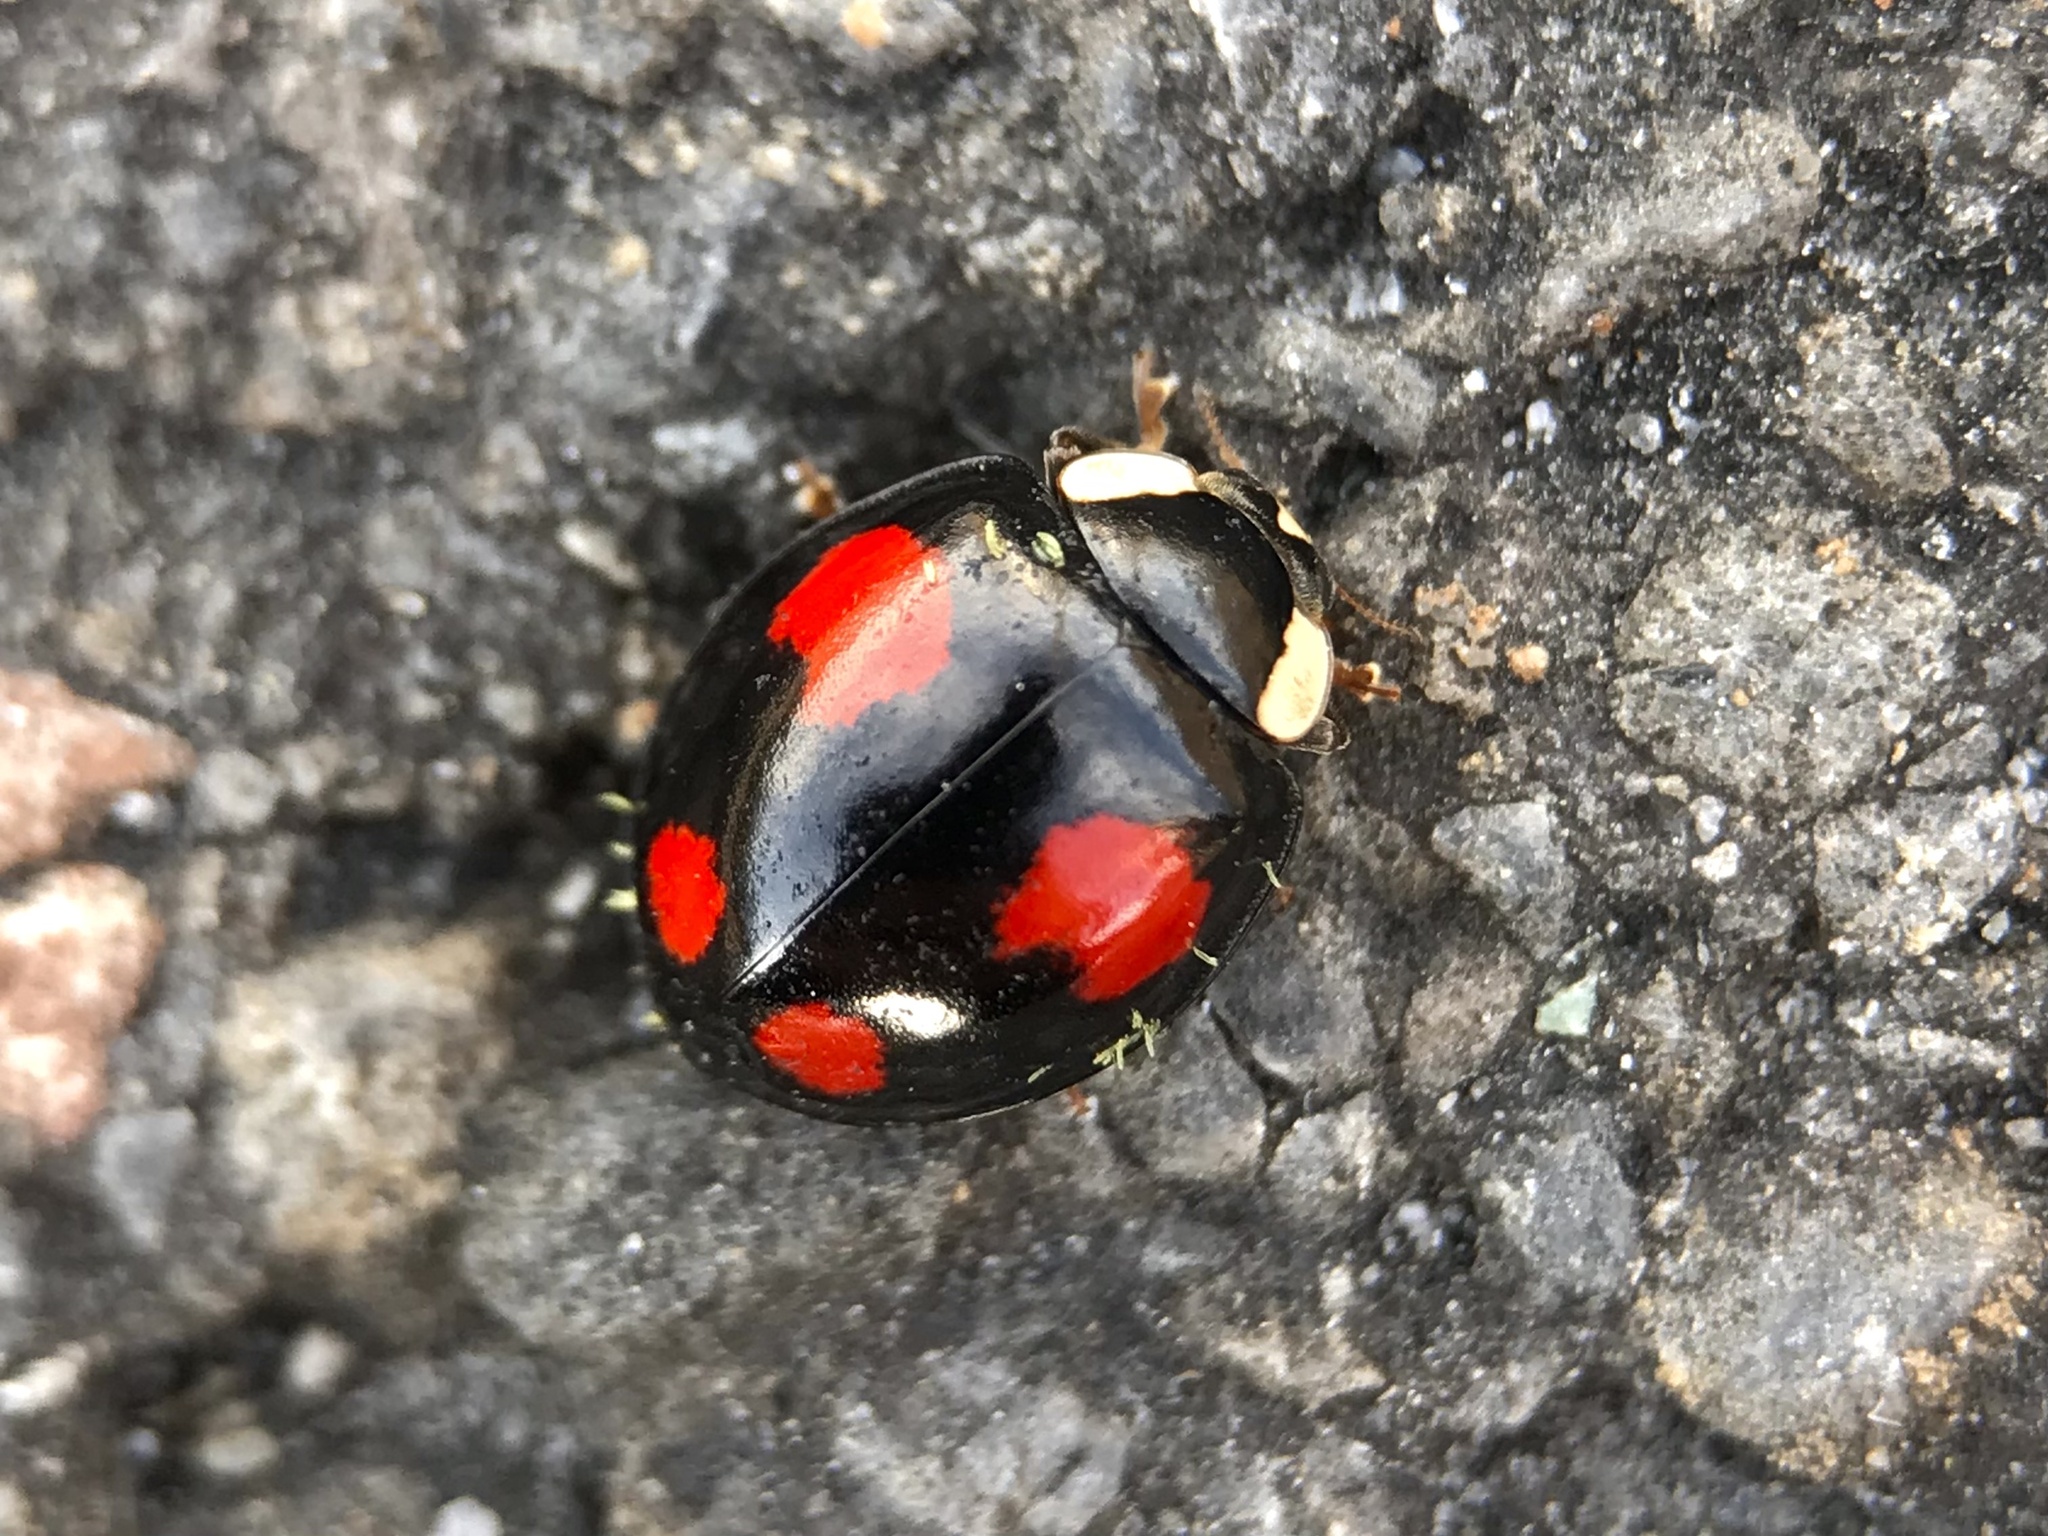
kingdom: Animalia
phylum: Arthropoda
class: Insecta
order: Coleoptera
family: Coccinellidae
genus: Harmonia
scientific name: Harmonia axyridis
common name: Harlequin ladybird
